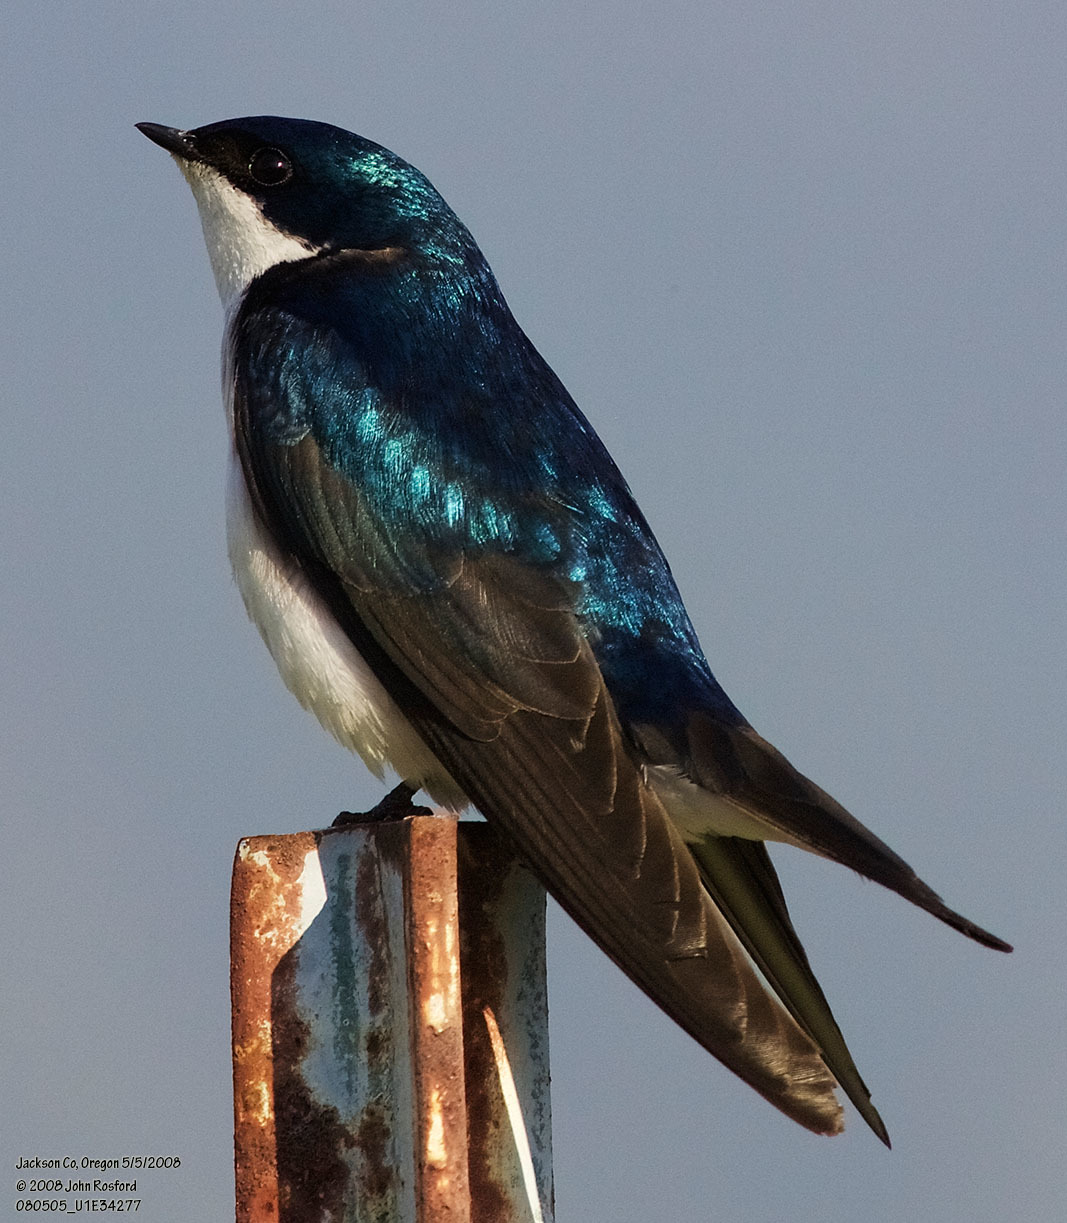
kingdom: Animalia
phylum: Chordata
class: Aves
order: Passeriformes
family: Hirundinidae
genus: Tachycineta
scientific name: Tachycineta bicolor
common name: Tree swallow
